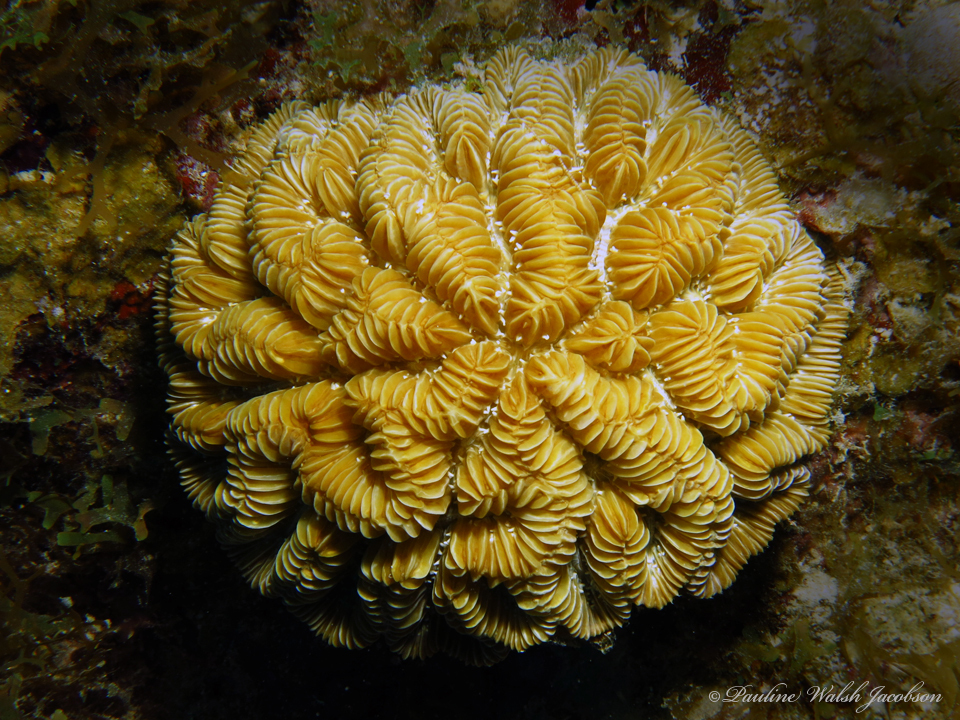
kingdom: Animalia
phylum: Cnidaria
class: Anthozoa
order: Scleractinia
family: Meandrinidae
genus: Meandrina
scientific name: Meandrina meandrites
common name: Maze coral
